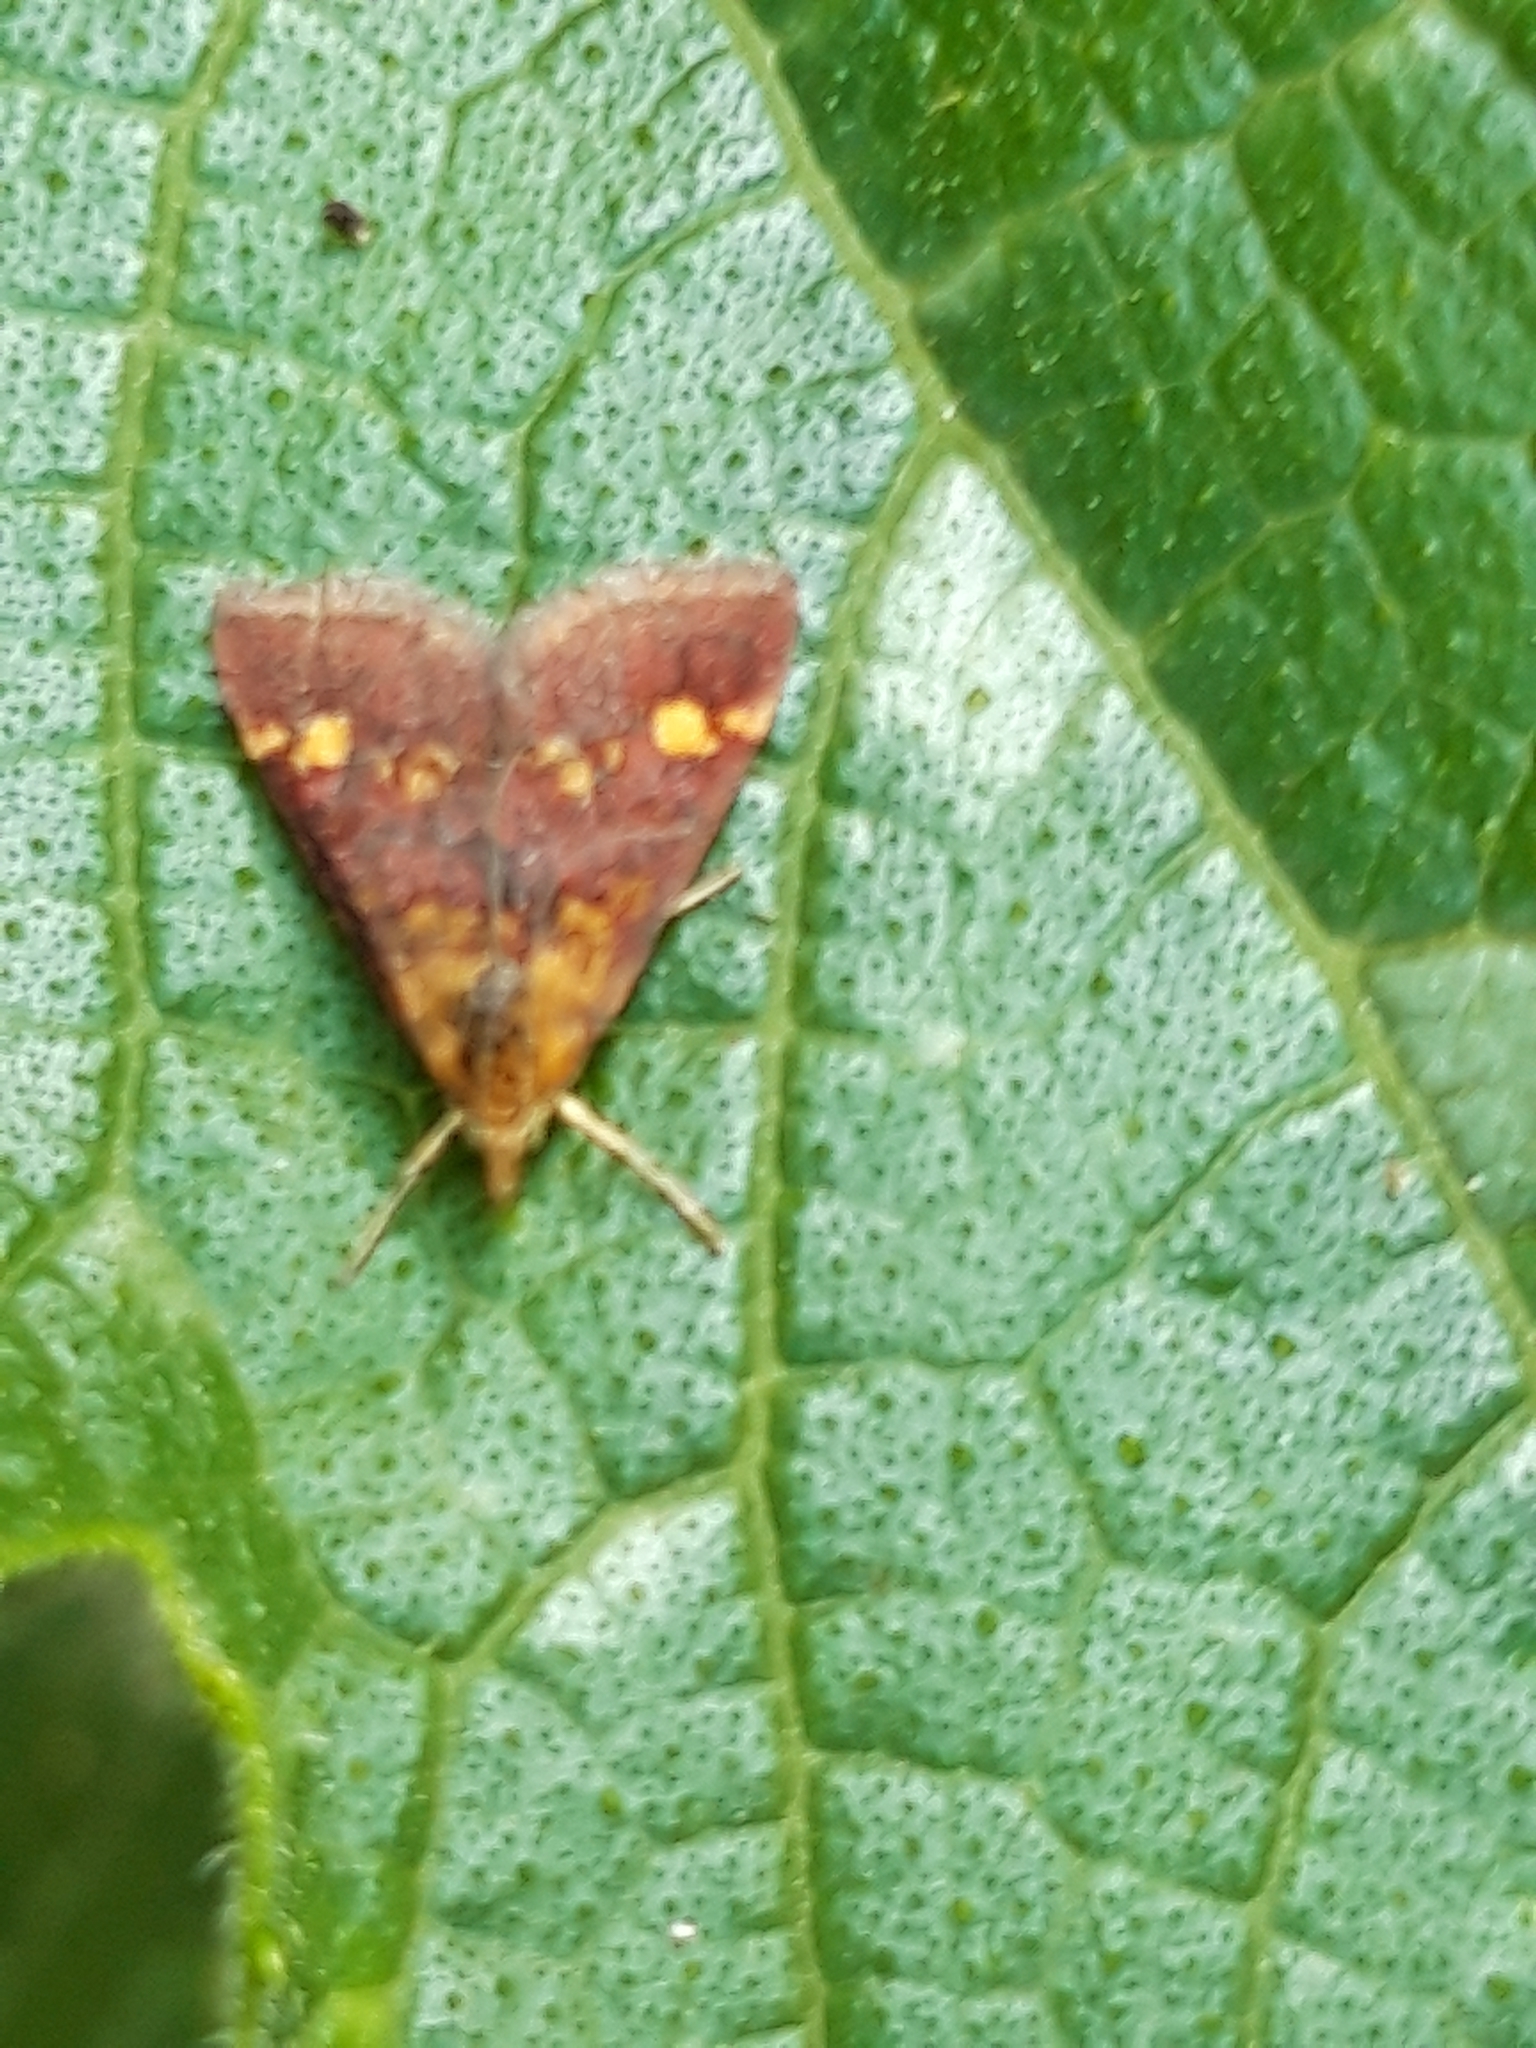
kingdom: Animalia
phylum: Arthropoda
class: Insecta
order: Lepidoptera
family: Crambidae
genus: Pyrausta
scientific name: Pyrausta aurata
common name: Small purple & gold
